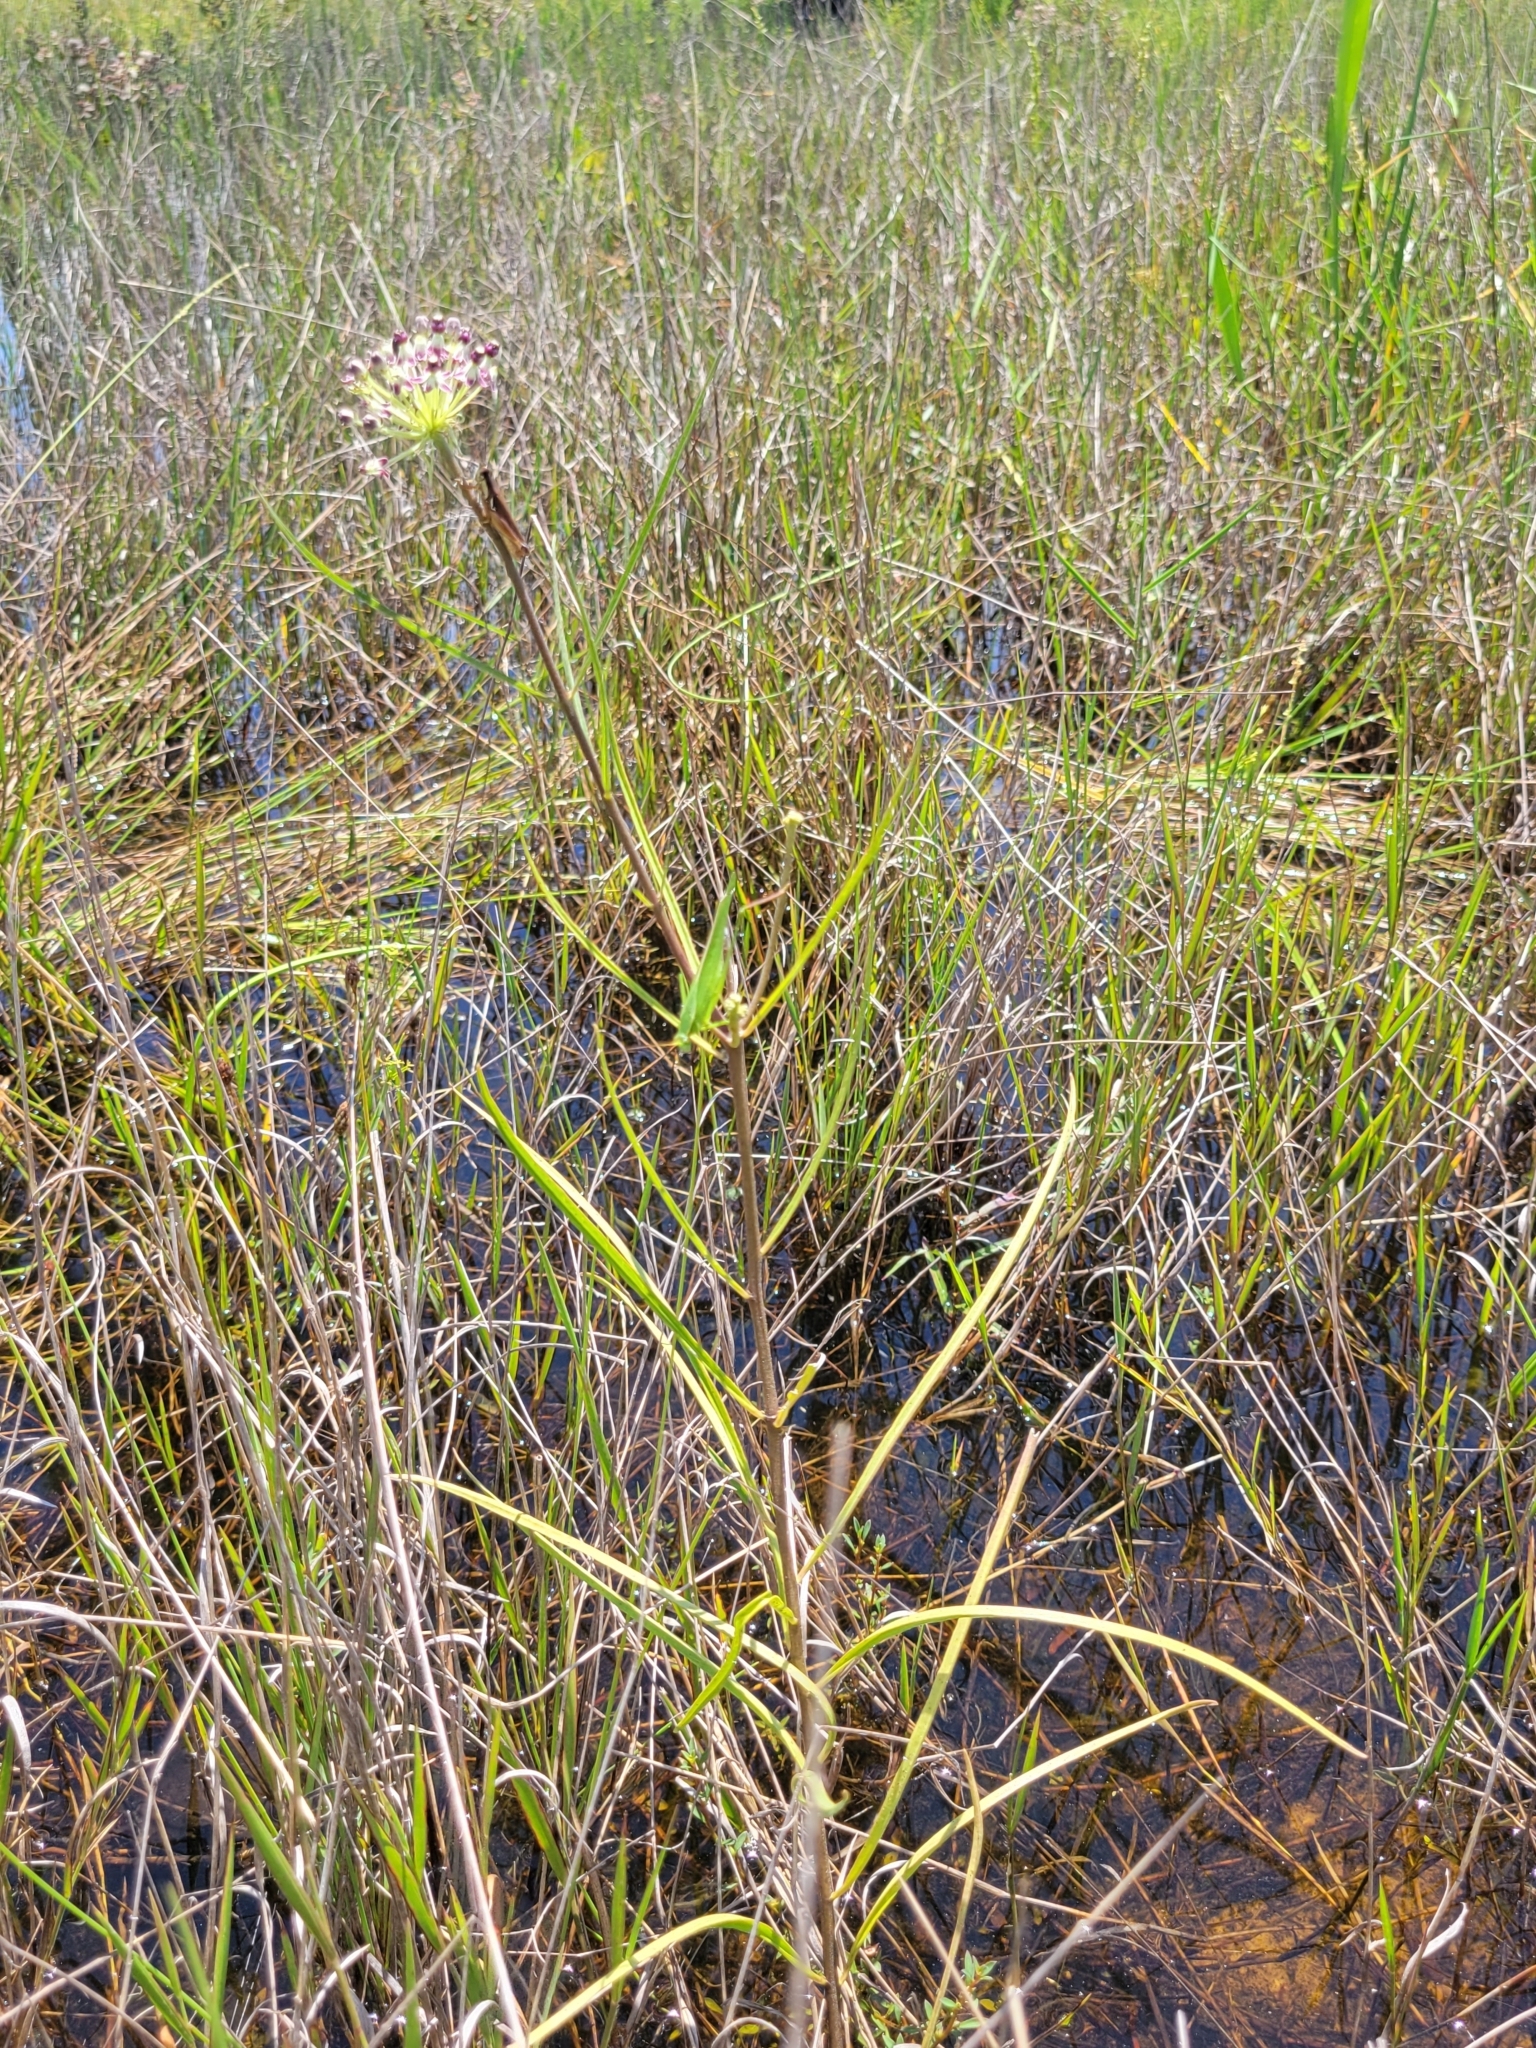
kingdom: Plantae
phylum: Tracheophyta
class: Magnoliopsida
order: Gentianales
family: Apocynaceae
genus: Asclepias
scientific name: Asclepias longifolia
